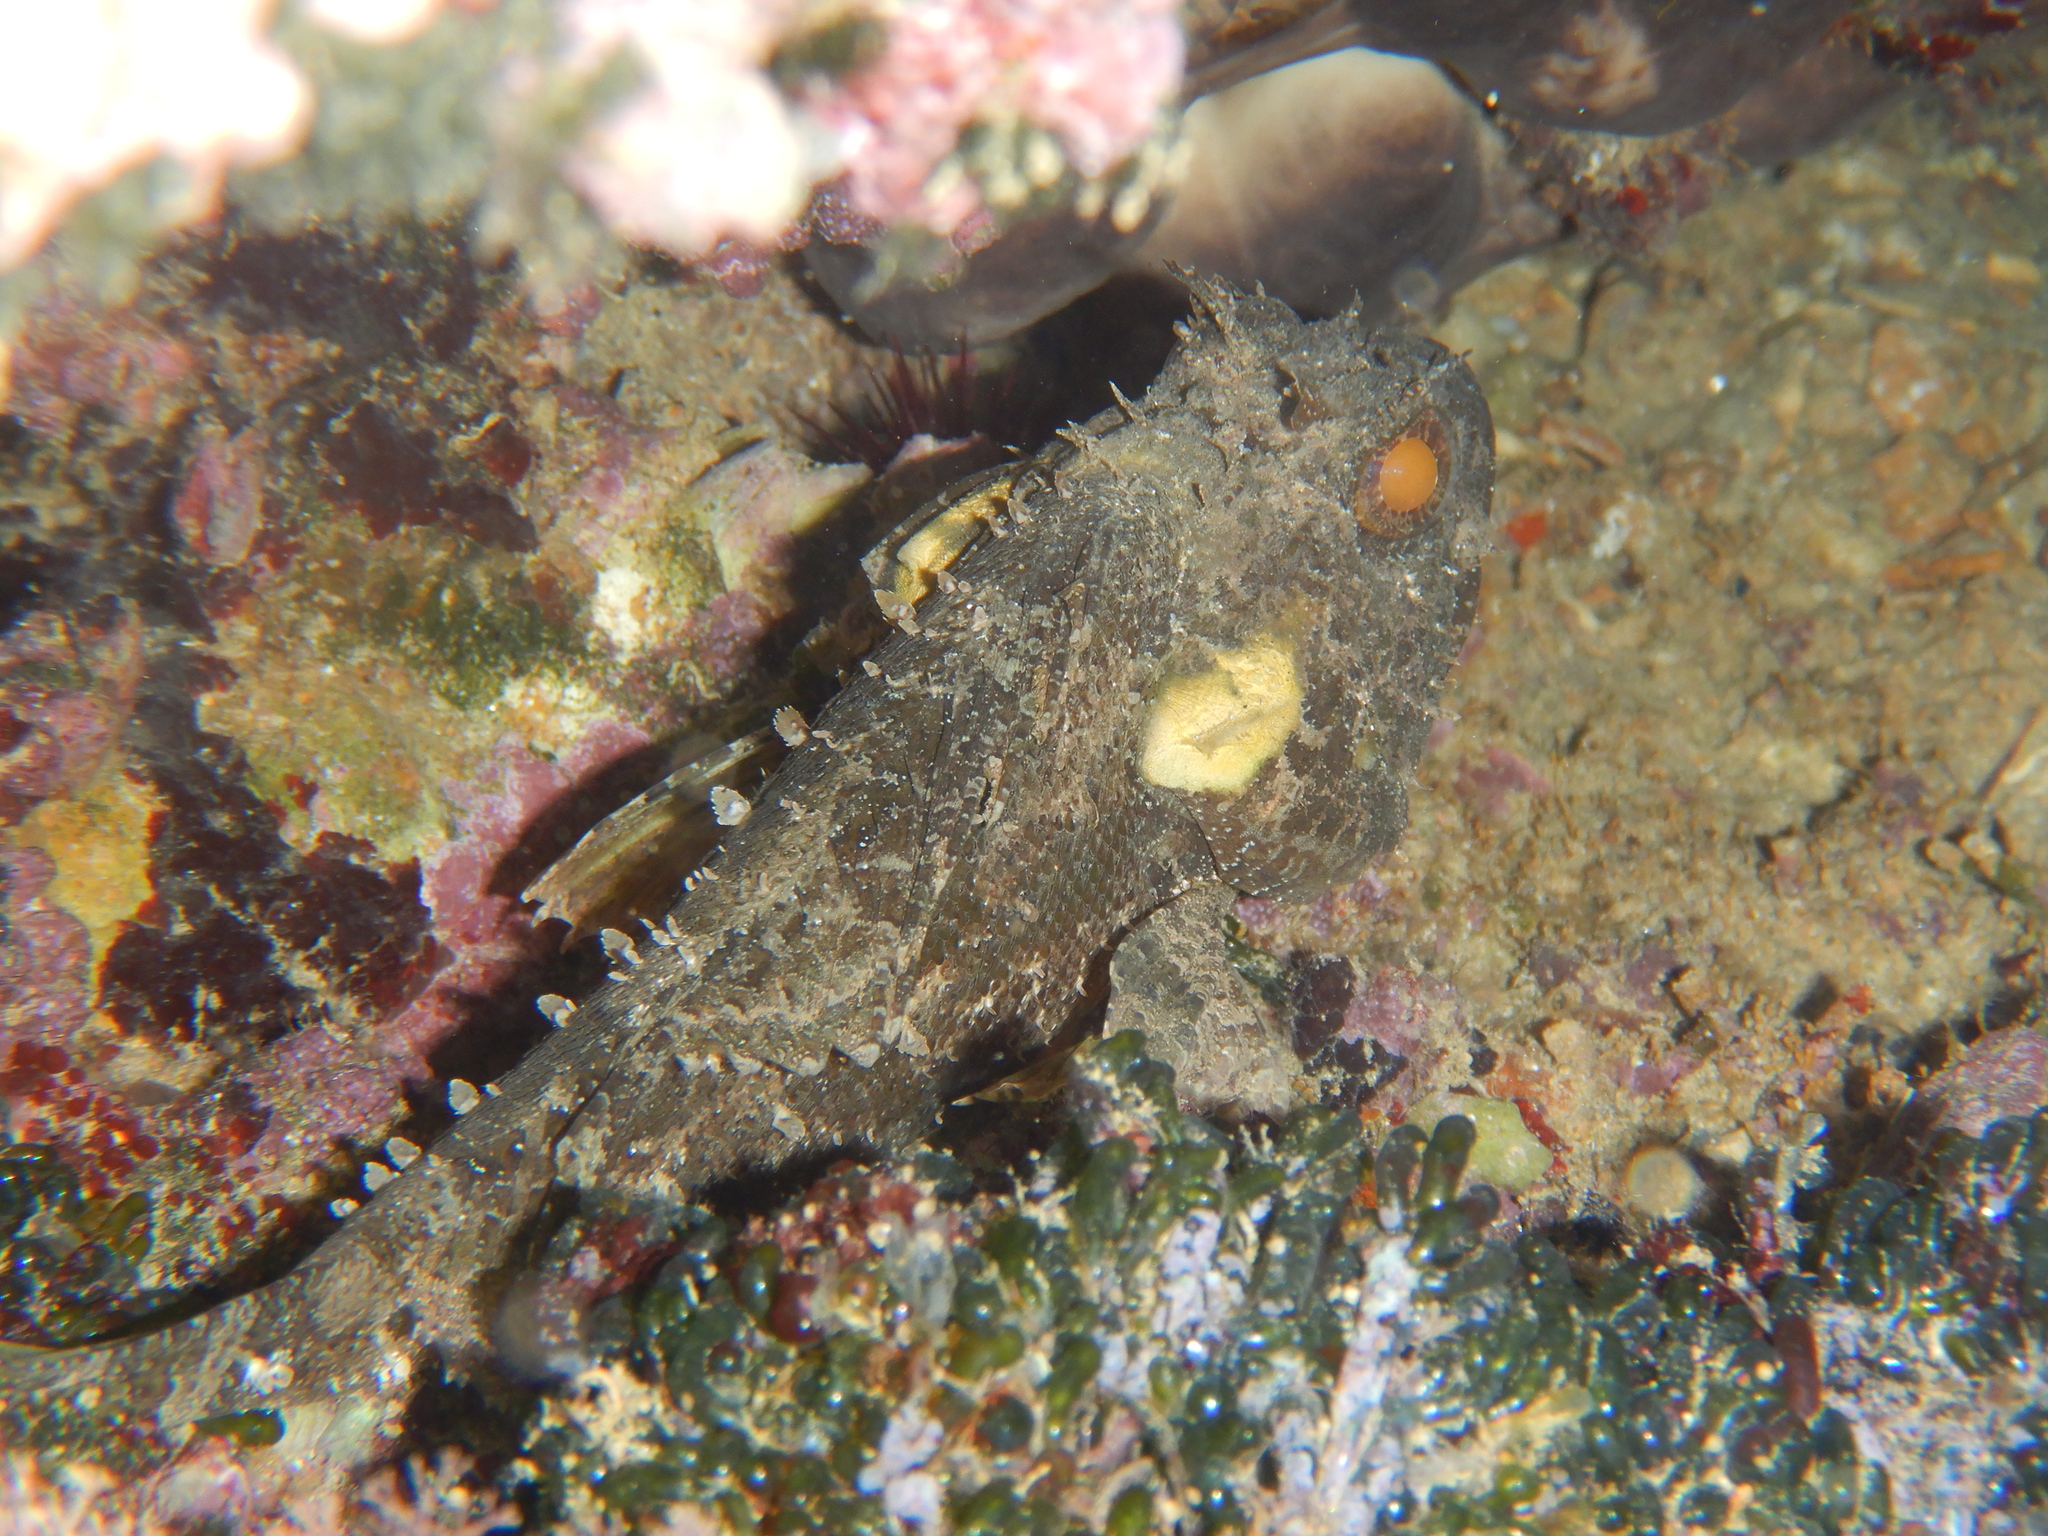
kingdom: Animalia
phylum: Chordata
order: Scorpaeniformes
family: Scorpaenidae
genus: Scorpaena
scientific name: Scorpaena porcus
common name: Black scorpionfish
